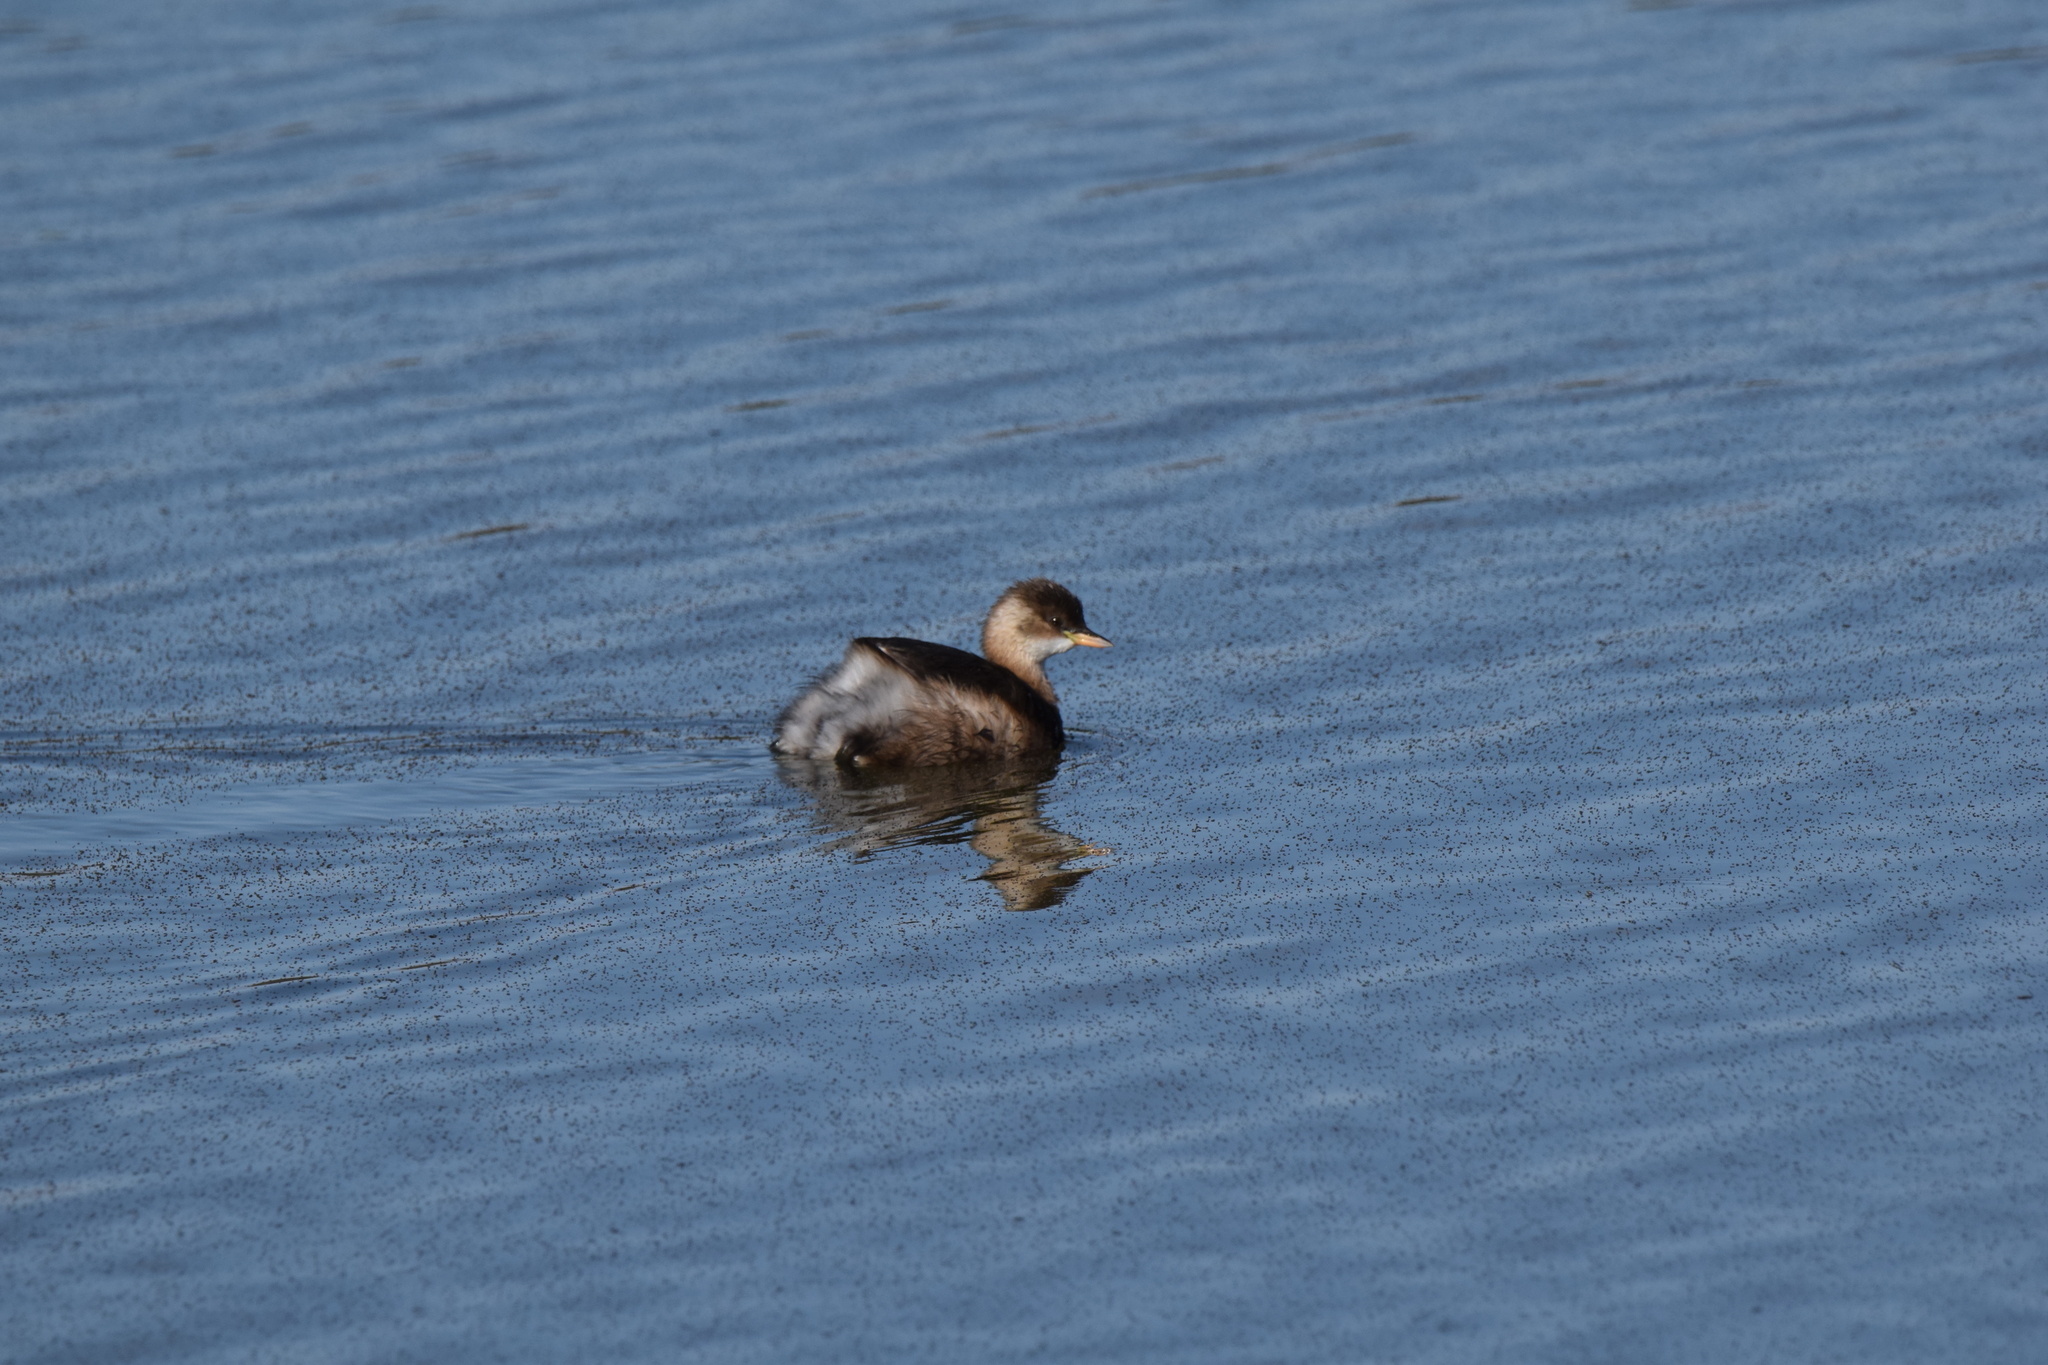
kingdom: Animalia
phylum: Chordata
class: Aves
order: Podicipediformes
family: Podicipedidae
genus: Tachybaptus
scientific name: Tachybaptus ruficollis
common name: Little grebe
